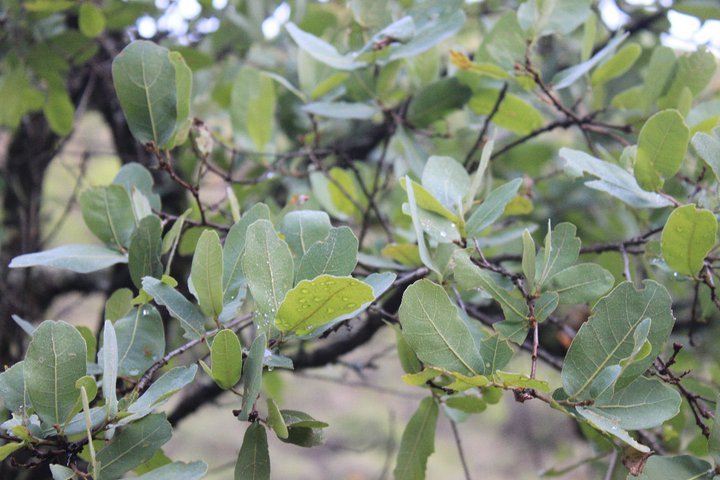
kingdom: Plantae
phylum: Tracheophyta
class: Magnoliopsida
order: Fagales
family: Fagaceae
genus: Quercus
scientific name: Quercus glaucoides
